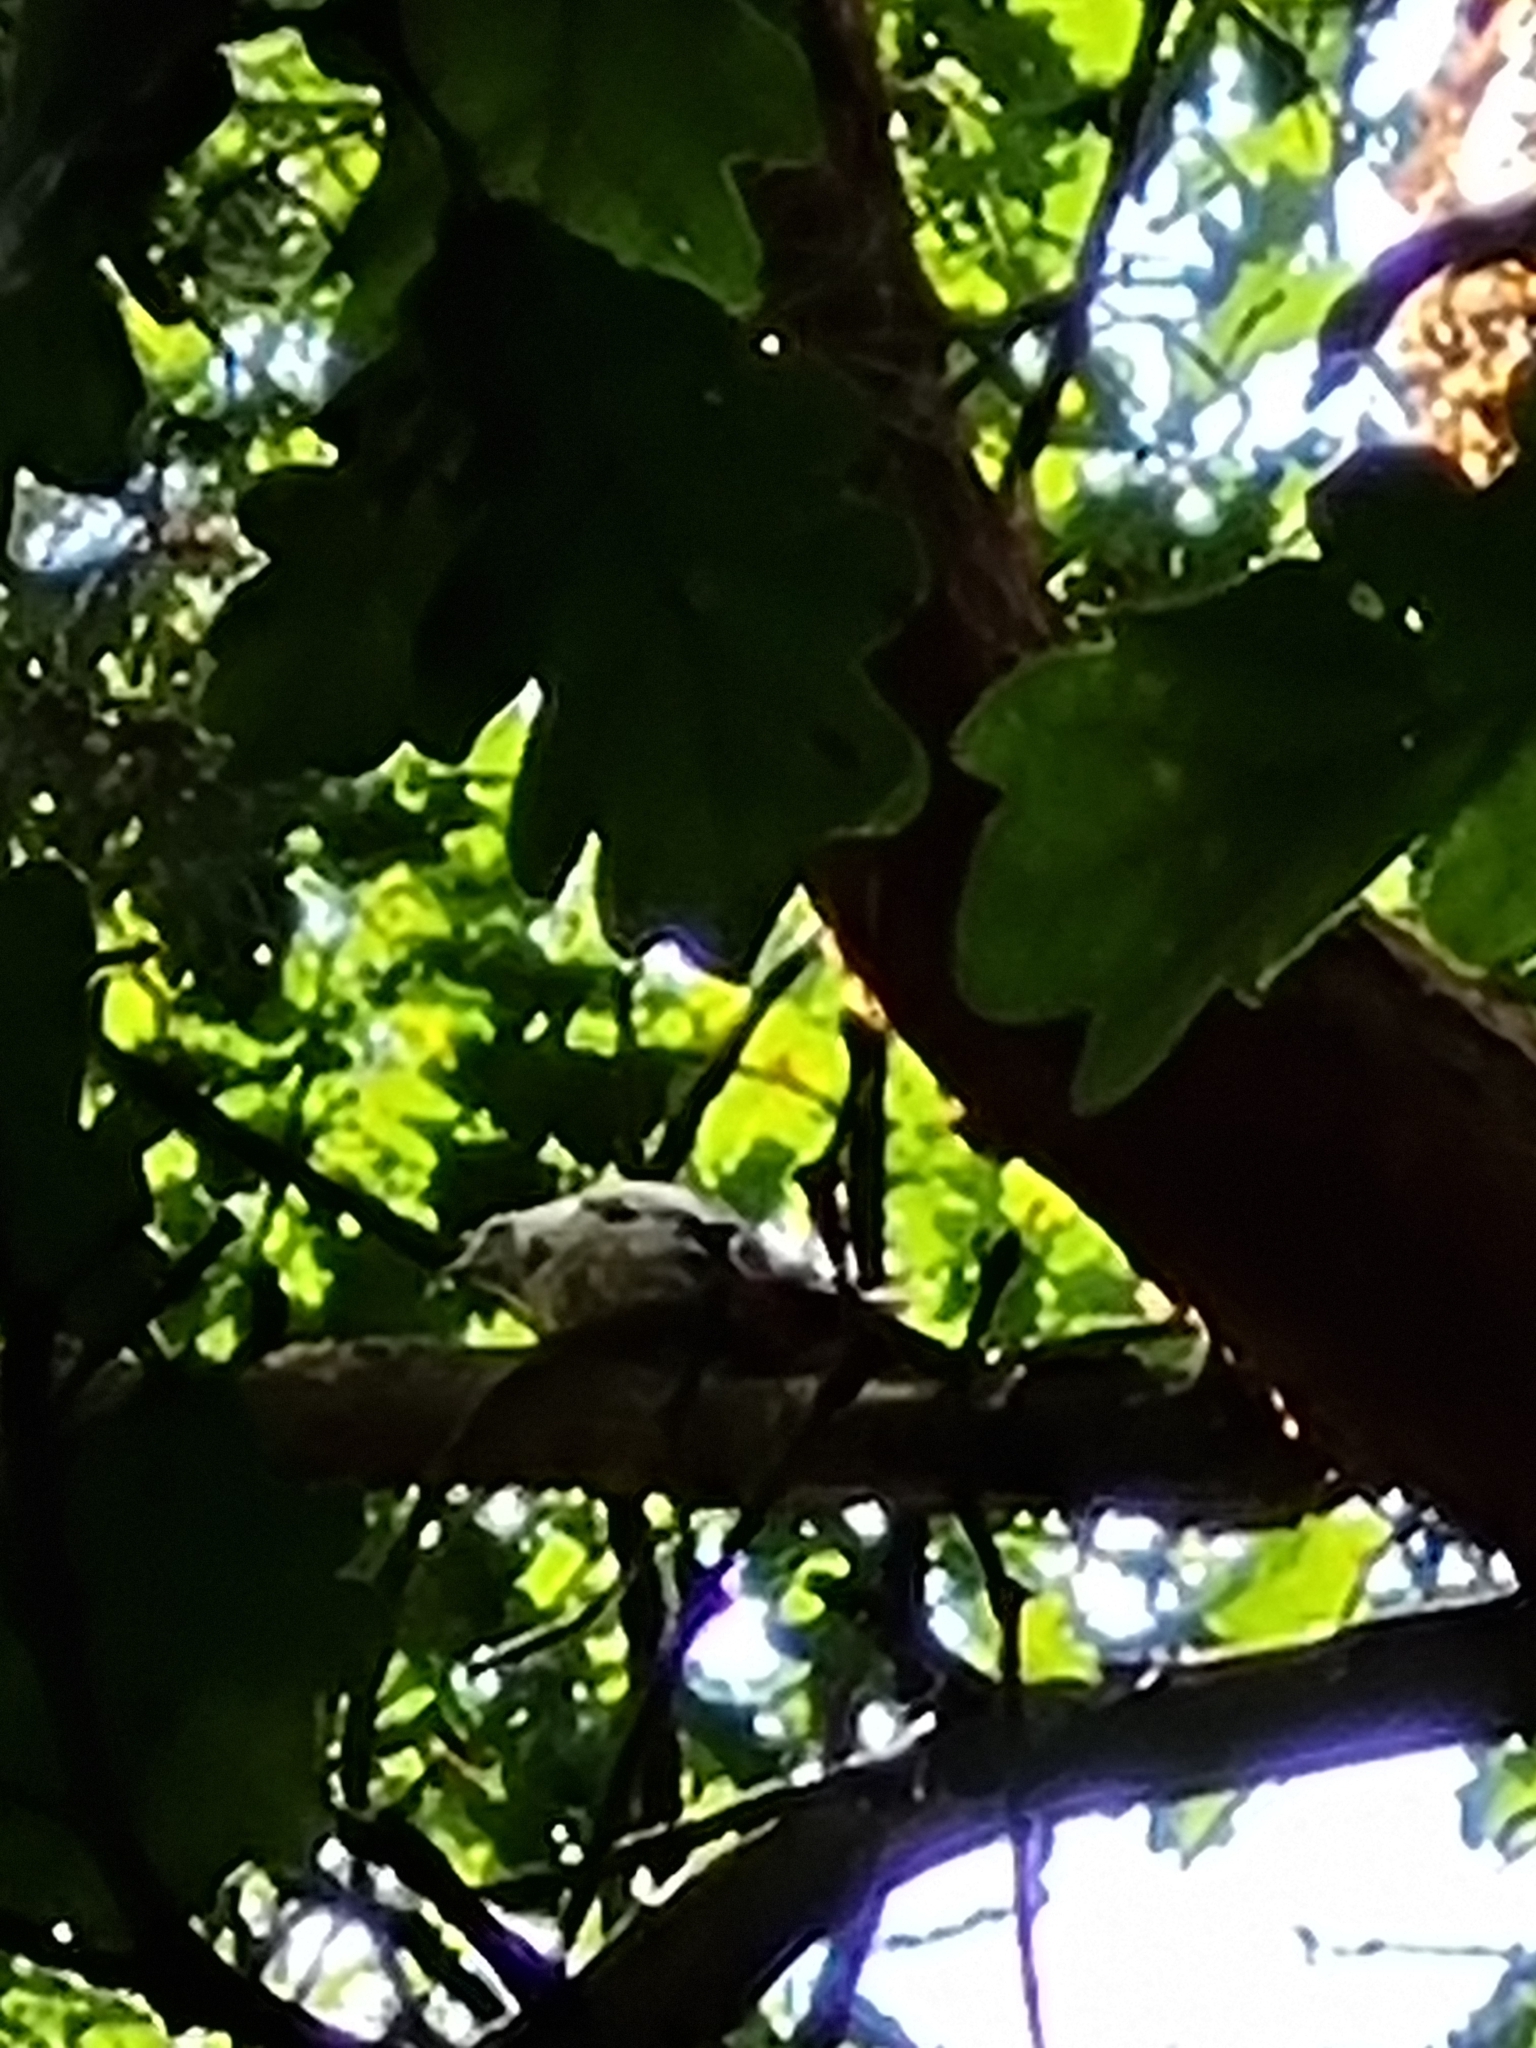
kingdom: Animalia
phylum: Chordata
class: Aves
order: Piciformes
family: Picidae
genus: Dendrocopos
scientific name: Dendrocopos major
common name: Great spotted woodpecker
